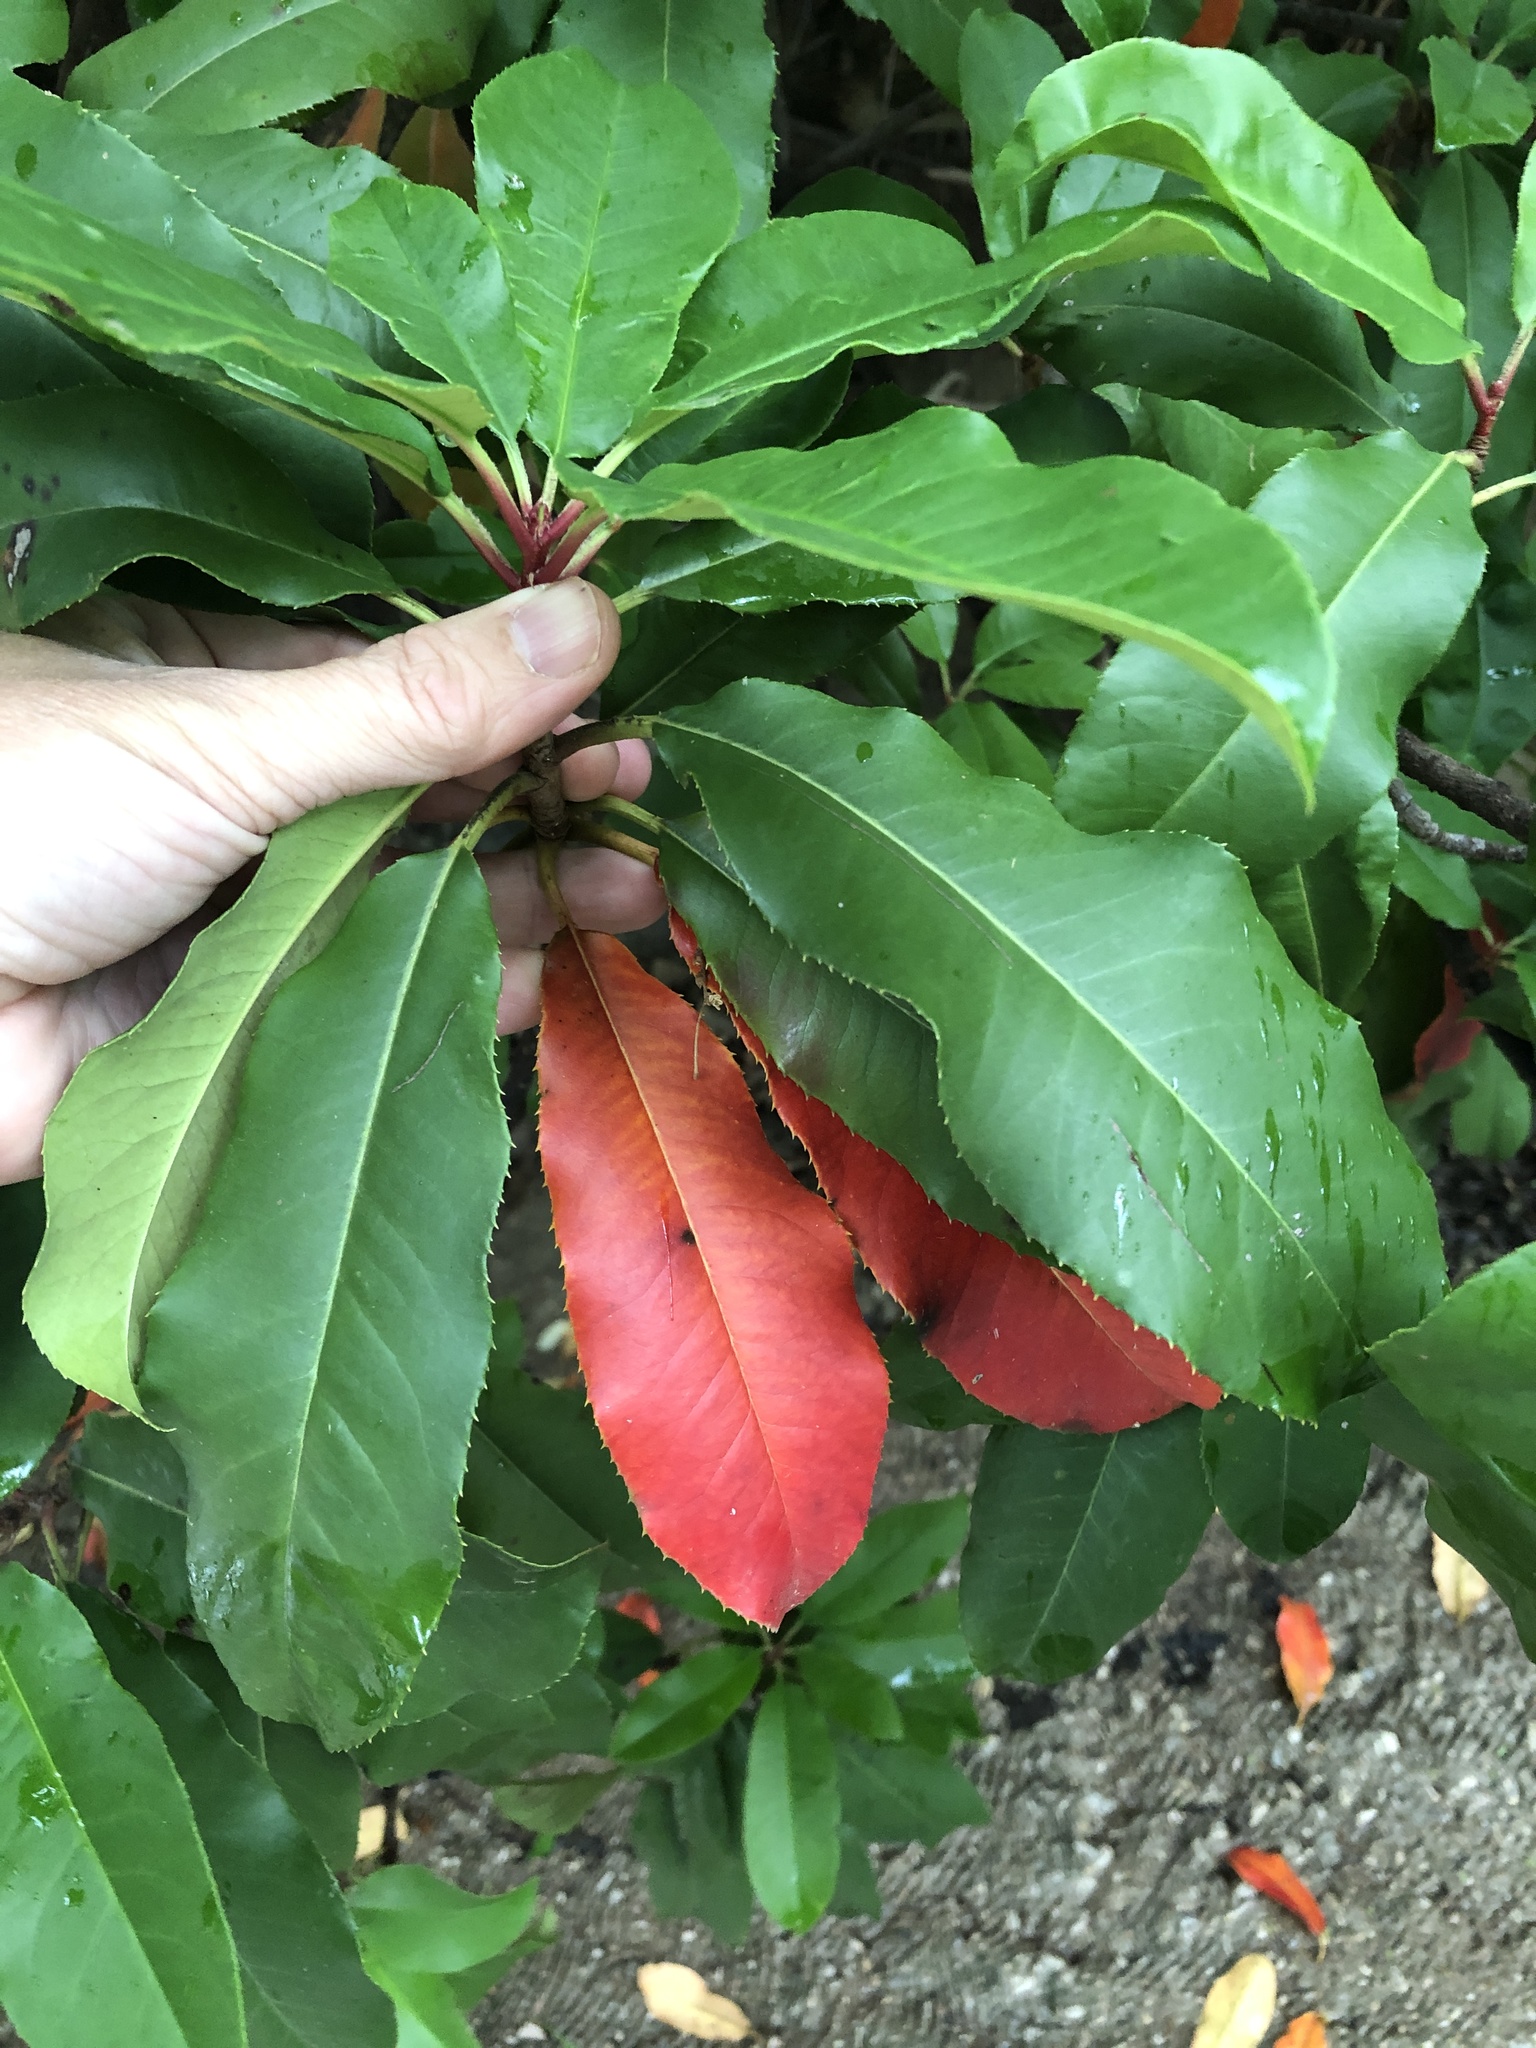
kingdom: Plantae
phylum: Tracheophyta
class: Magnoliopsida
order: Rosales
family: Rosaceae
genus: Photinia
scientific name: Photinia serratifolia
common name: Taiwanese photinia
